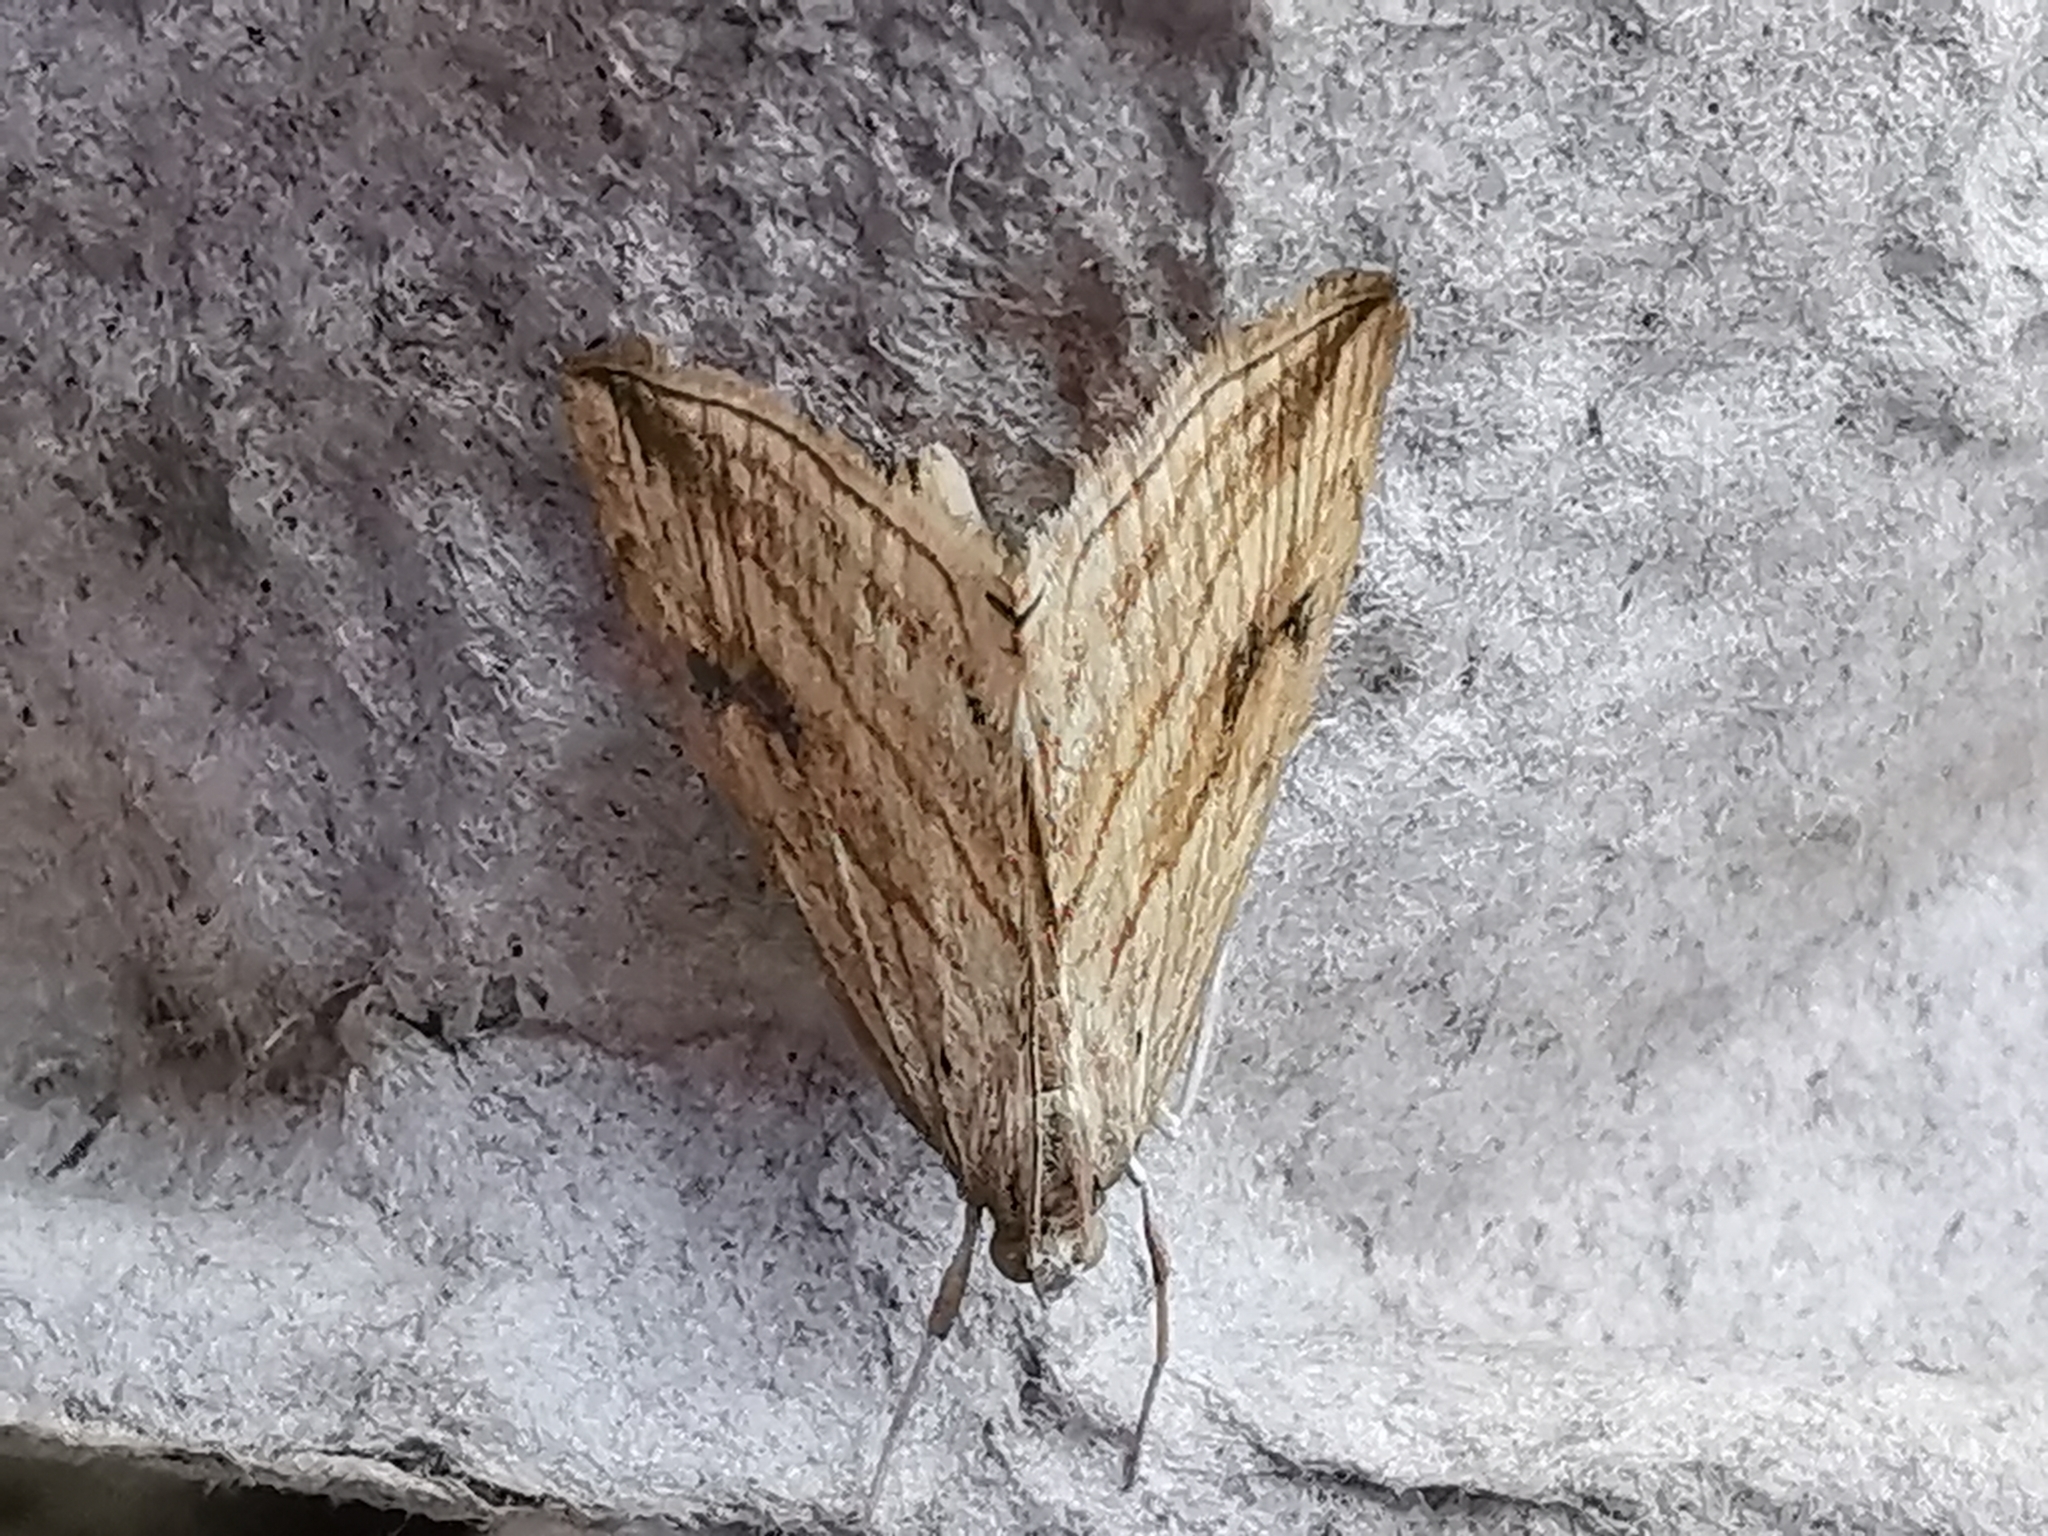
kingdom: Animalia
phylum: Arthropoda
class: Insecta
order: Lepidoptera
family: Crambidae
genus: Evergestis
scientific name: Evergestis forficalis
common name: Garden pebble
